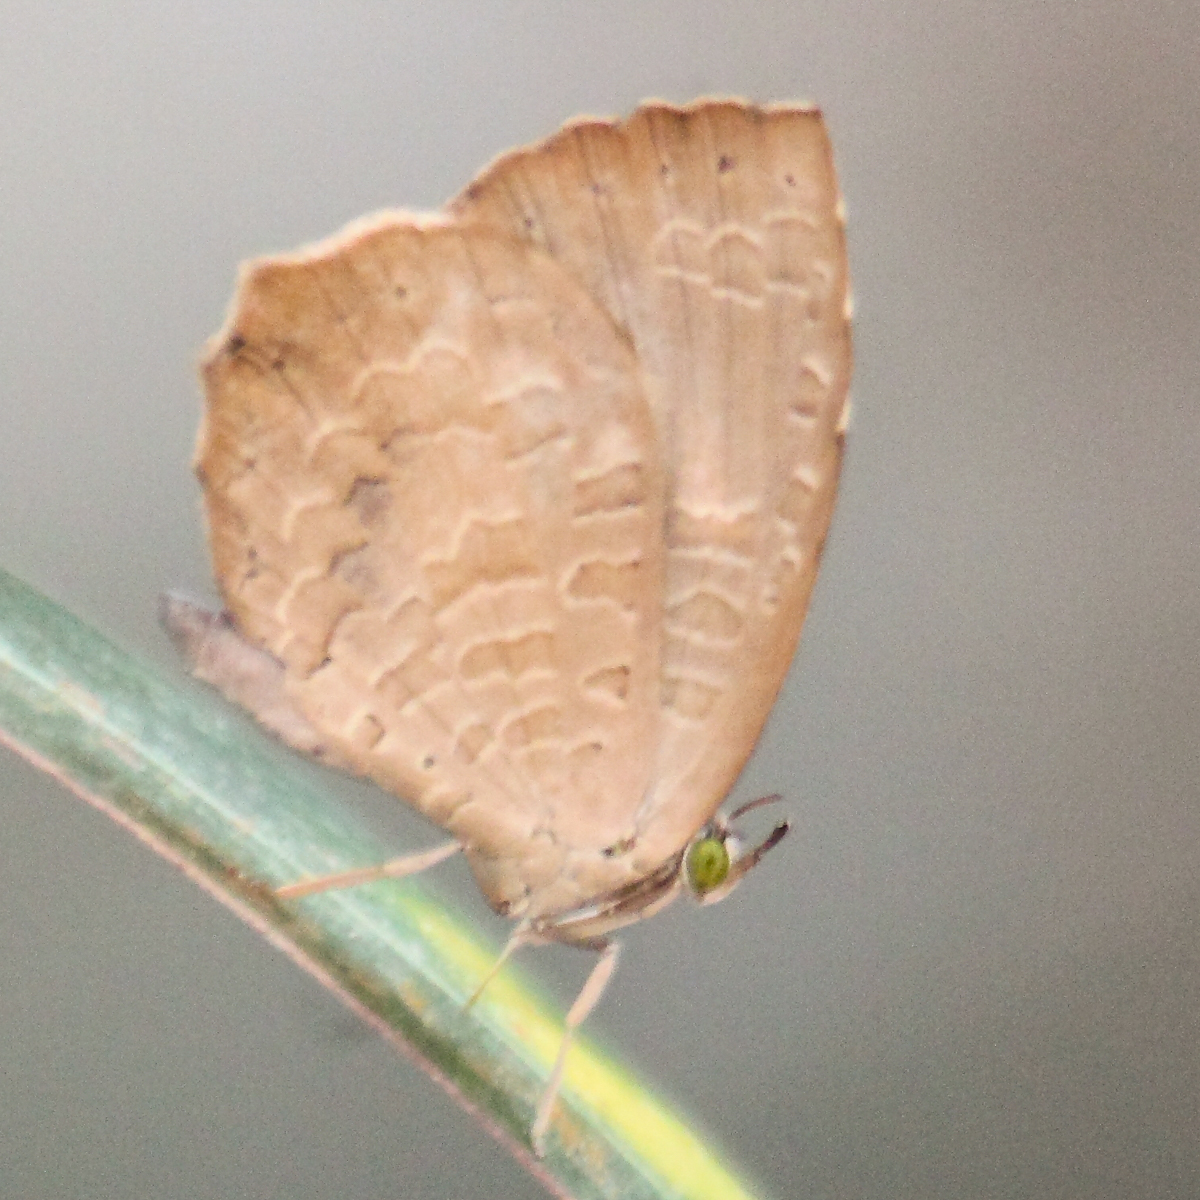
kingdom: Animalia
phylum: Arthropoda
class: Insecta
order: Lepidoptera
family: Lycaenidae
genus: Miletus
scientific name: Miletus chinensis
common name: Common brownie
